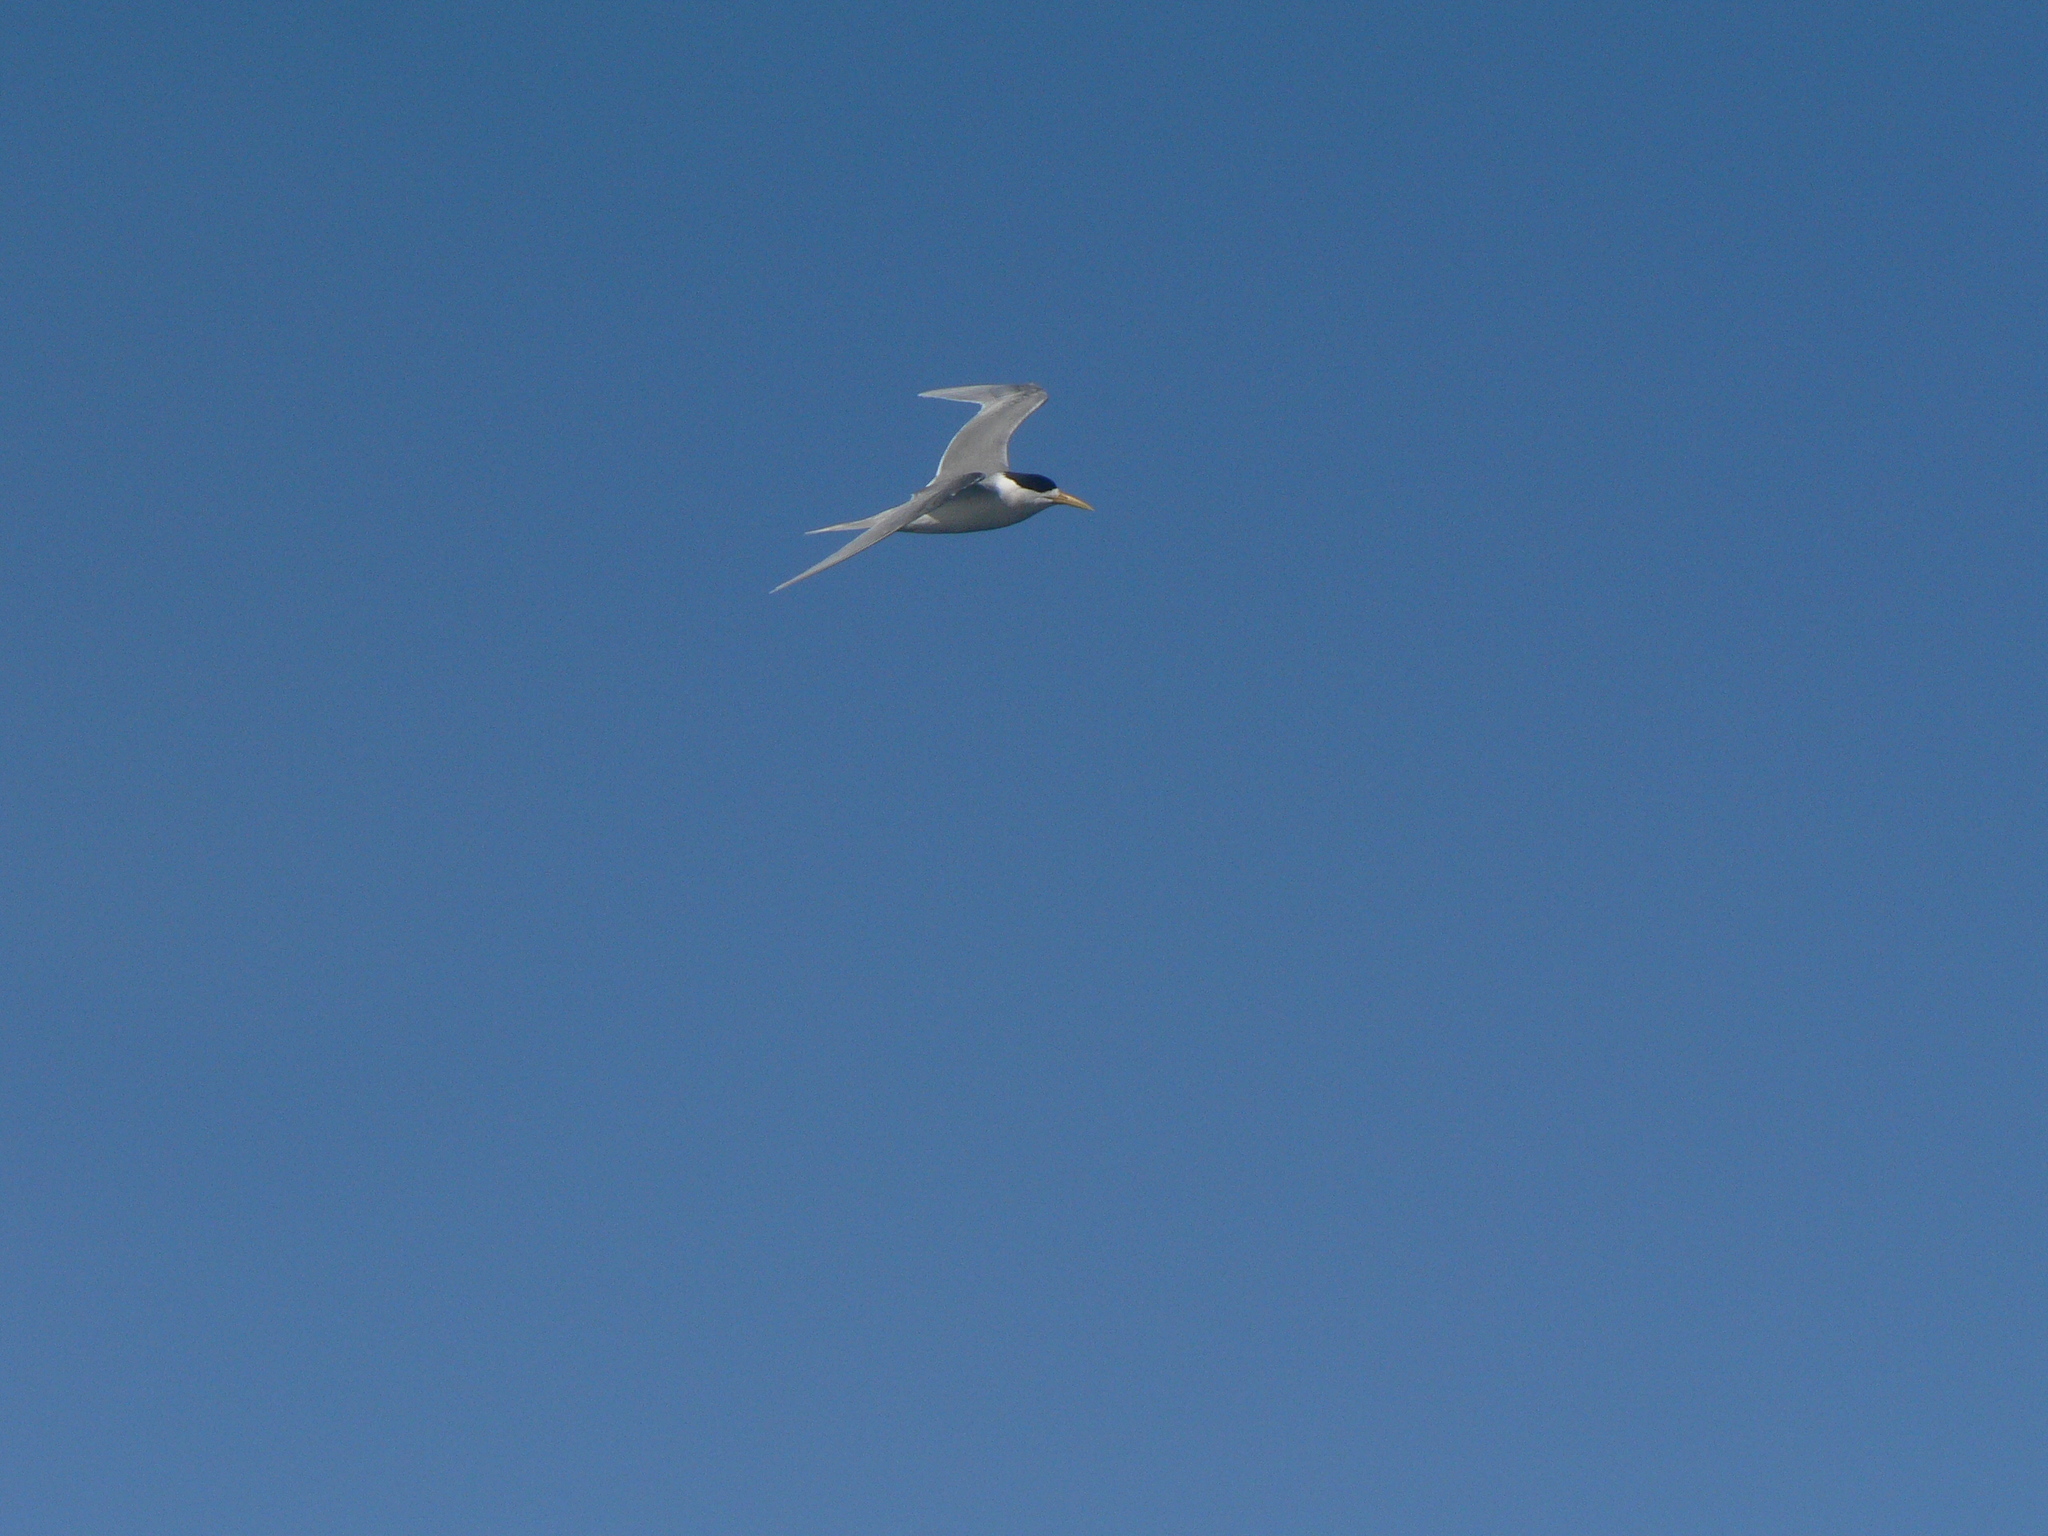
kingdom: Animalia
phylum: Chordata
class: Aves
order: Charadriiformes
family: Laridae
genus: Thalasseus
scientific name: Thalasseus bergii
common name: Greater crested tern
